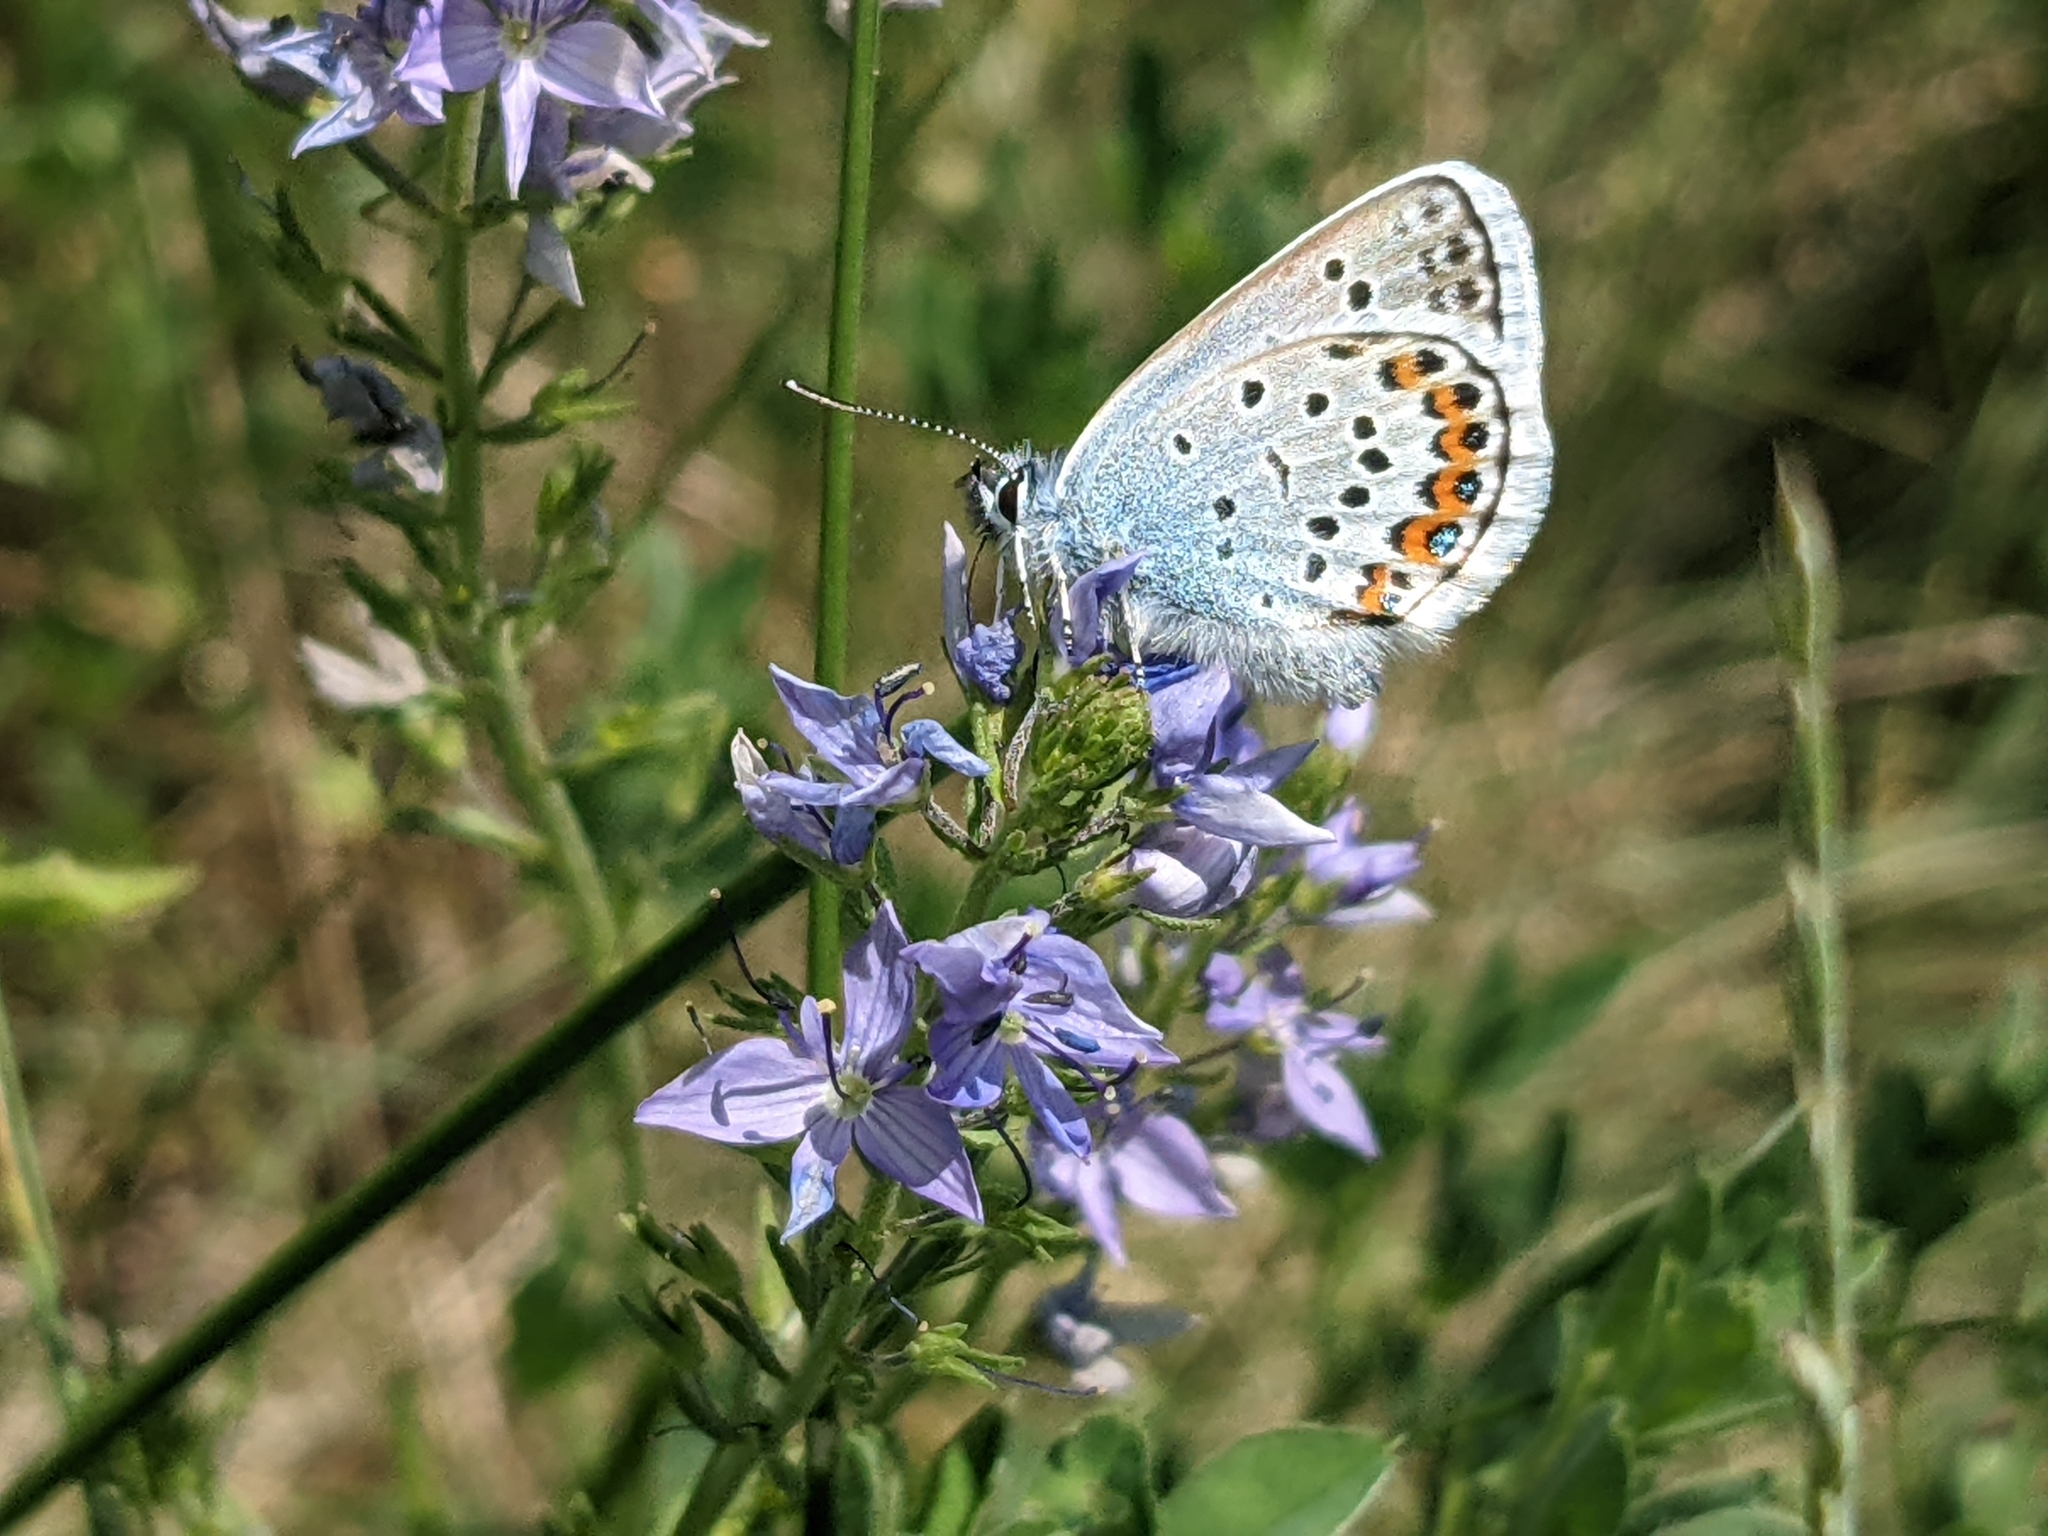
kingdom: Animalia
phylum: Arthropoda
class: Insecta
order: Lepidoptera
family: Lycaenidae
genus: Plebejus
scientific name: Plebejus argus
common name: Silver-studded blue
